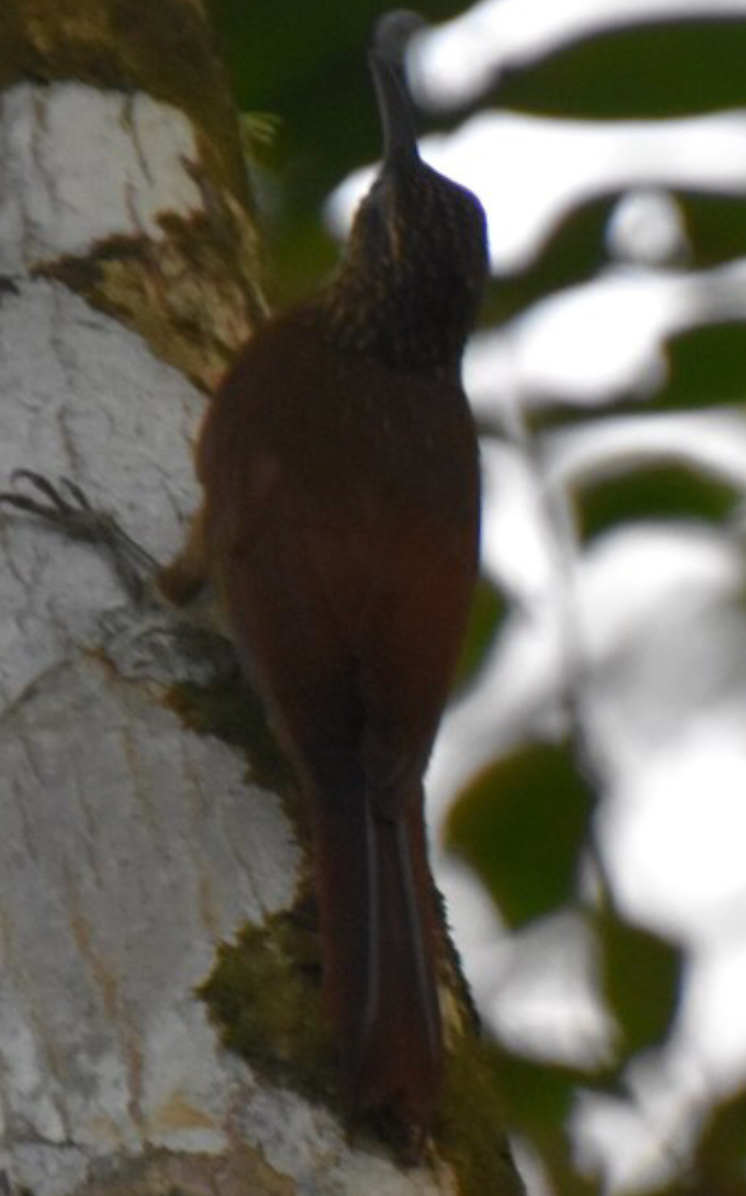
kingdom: Animalia
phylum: Chordata
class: Aves
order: Passeriformes
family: Furnariidae
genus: Xiphorhynchus
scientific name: Xiphorhynchus susurrans
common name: Cocoa woodcreeper
